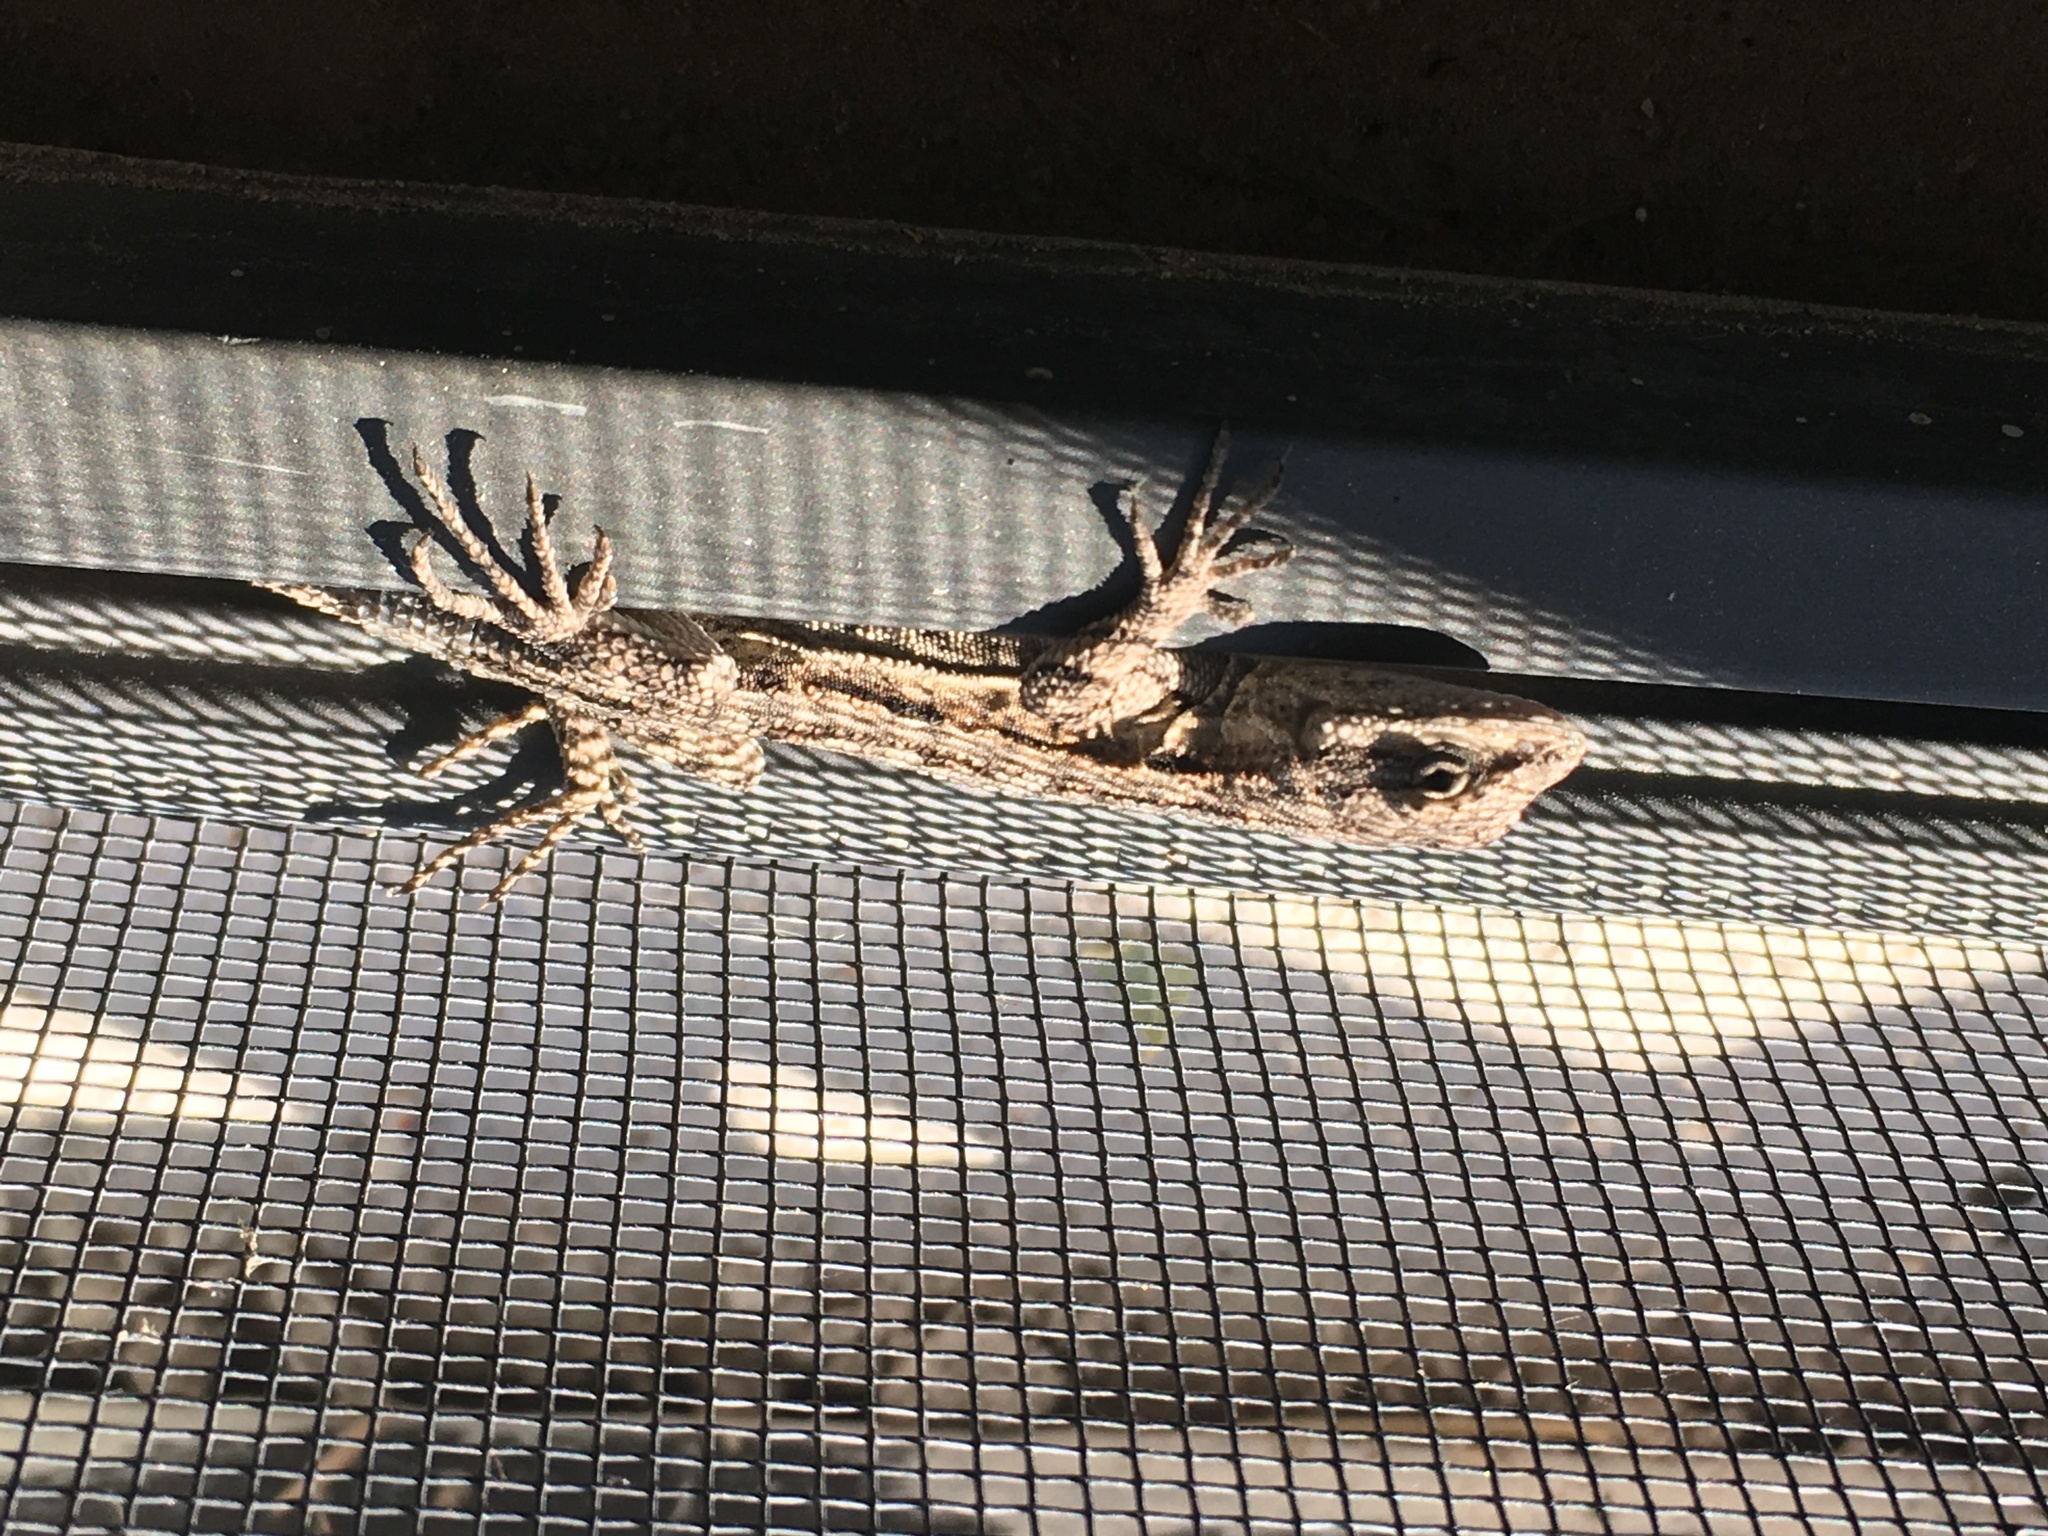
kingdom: Animalia
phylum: Chordata
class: Squamata
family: Phrynosomatidae
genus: Urosaurus
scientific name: Urosaurus ornatus
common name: Ornate tree lizard
